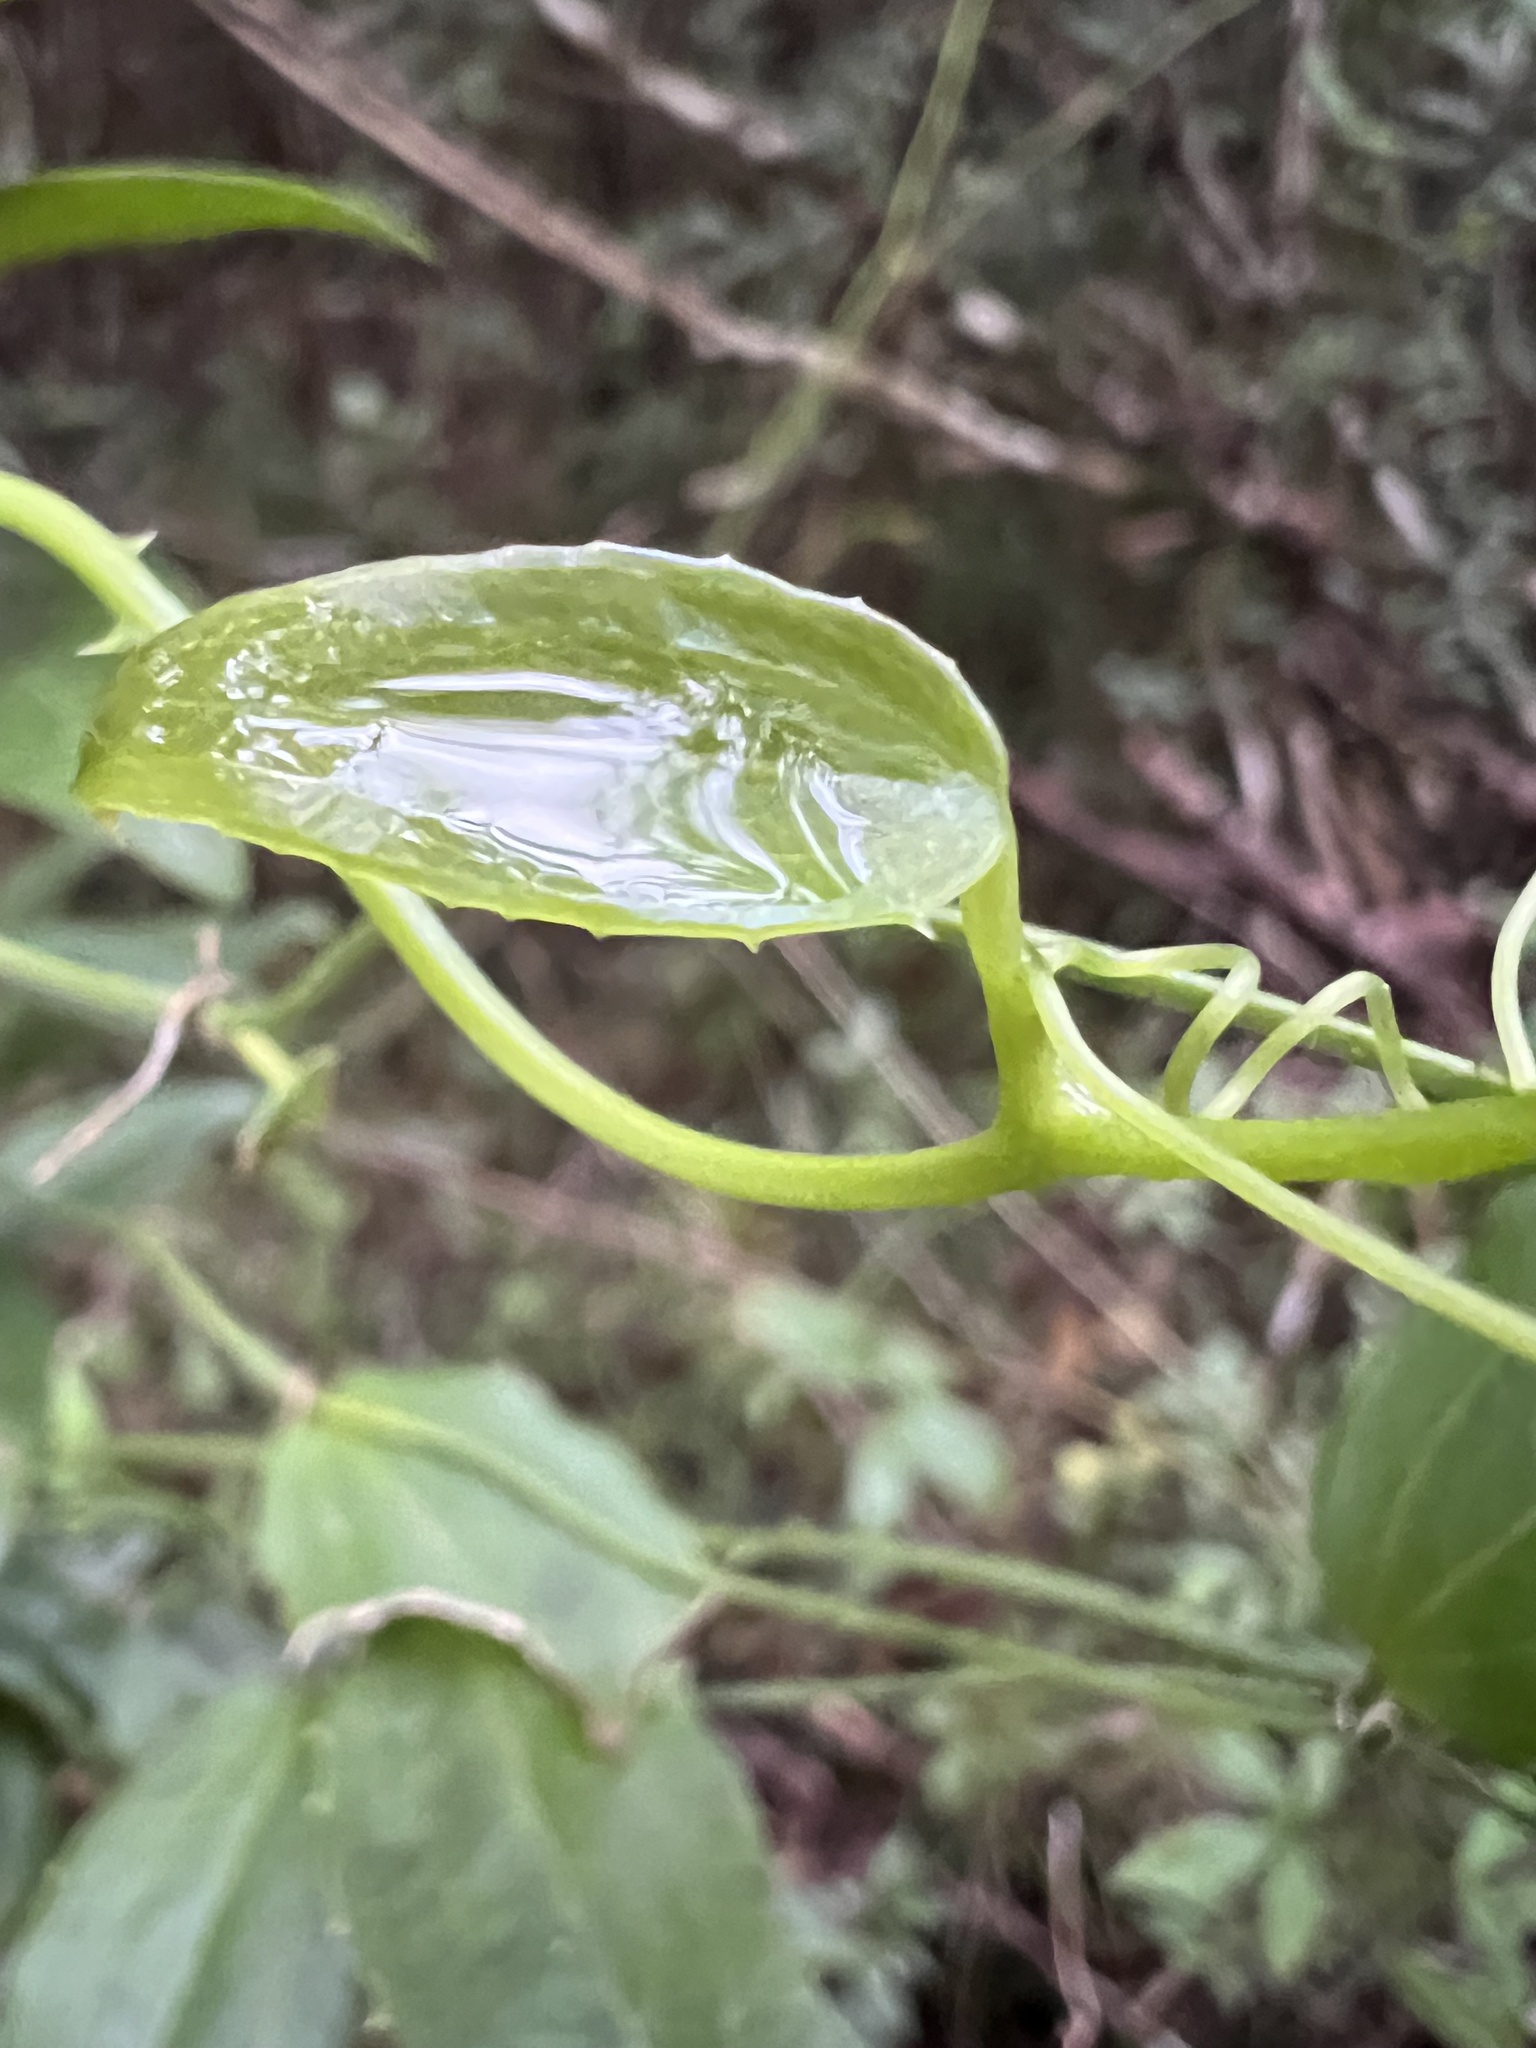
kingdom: Plantae
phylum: Tracheophyta
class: Liliopsida
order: Liliales
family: Smilacaceae
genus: Smilax
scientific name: Smilax havanensis
